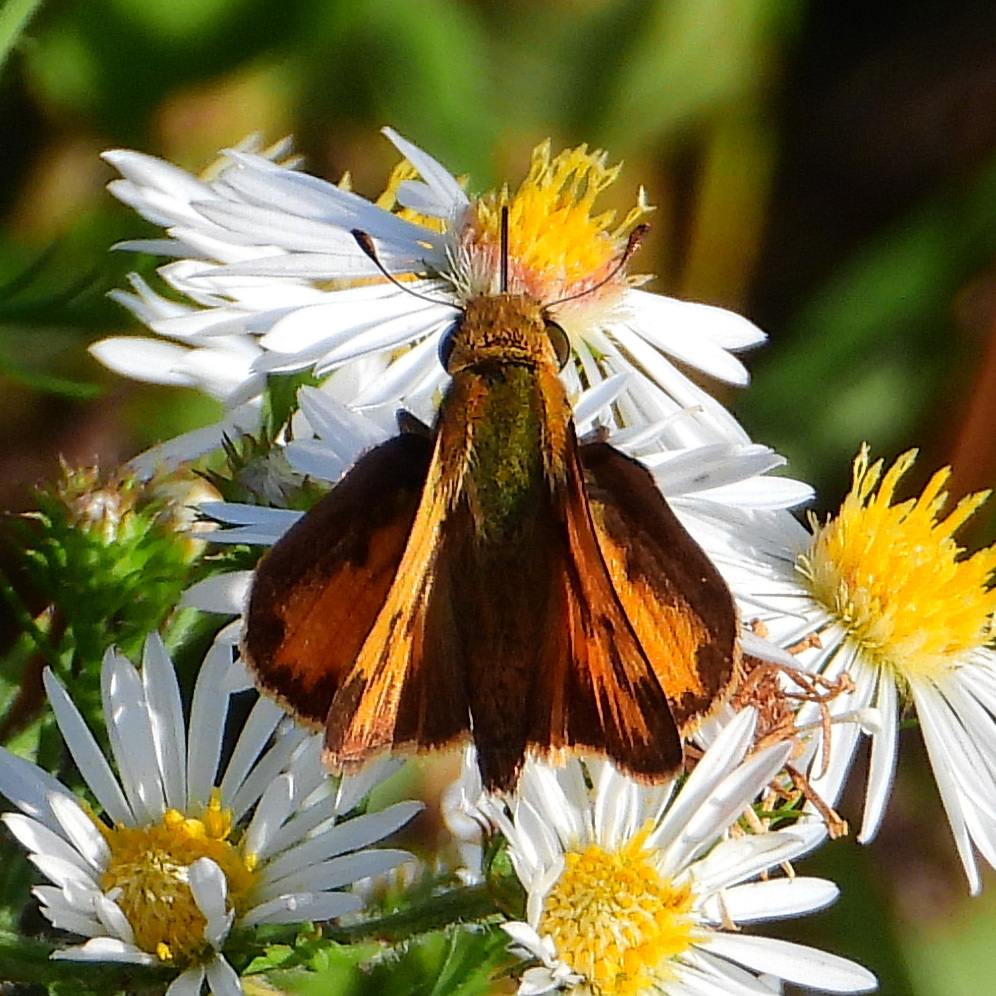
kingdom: Animalia
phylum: Arthropoda
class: Insecta
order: Lepidoptera
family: Hesperiidae
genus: Hylephila
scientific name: Hylephila phyleus
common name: Fiery skipper
